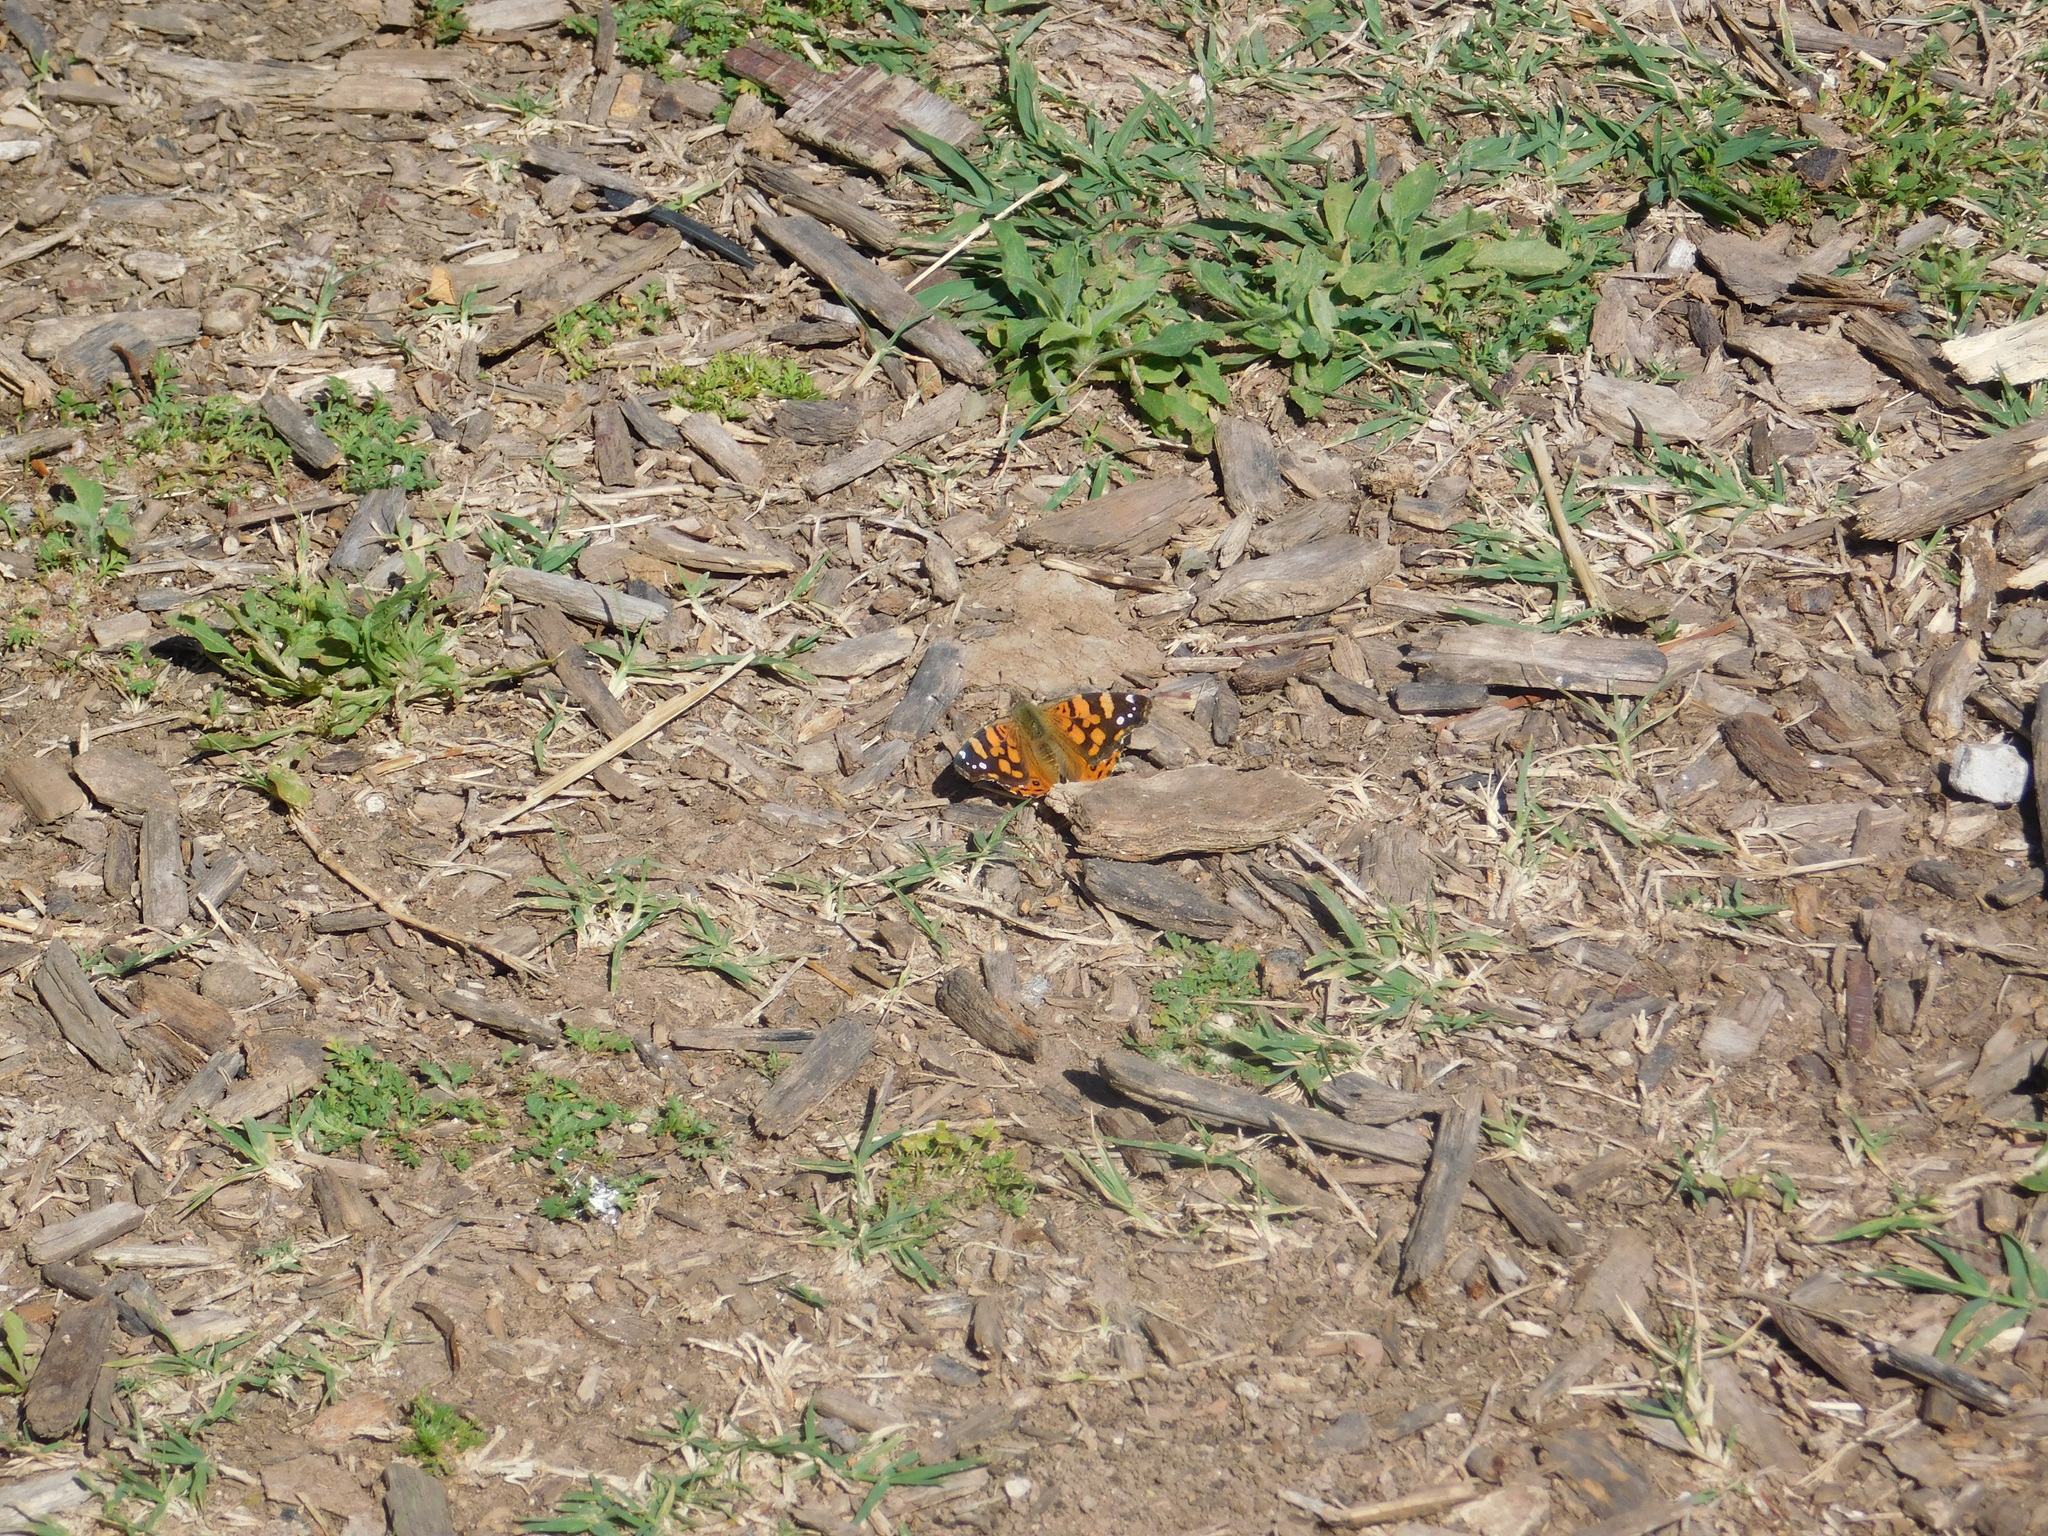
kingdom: Animalia
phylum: Arthropoda
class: Insecta
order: Lepidoptera
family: Nymphalidae
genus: Vanessa
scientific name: Vanessa carye
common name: Subtropical lady
